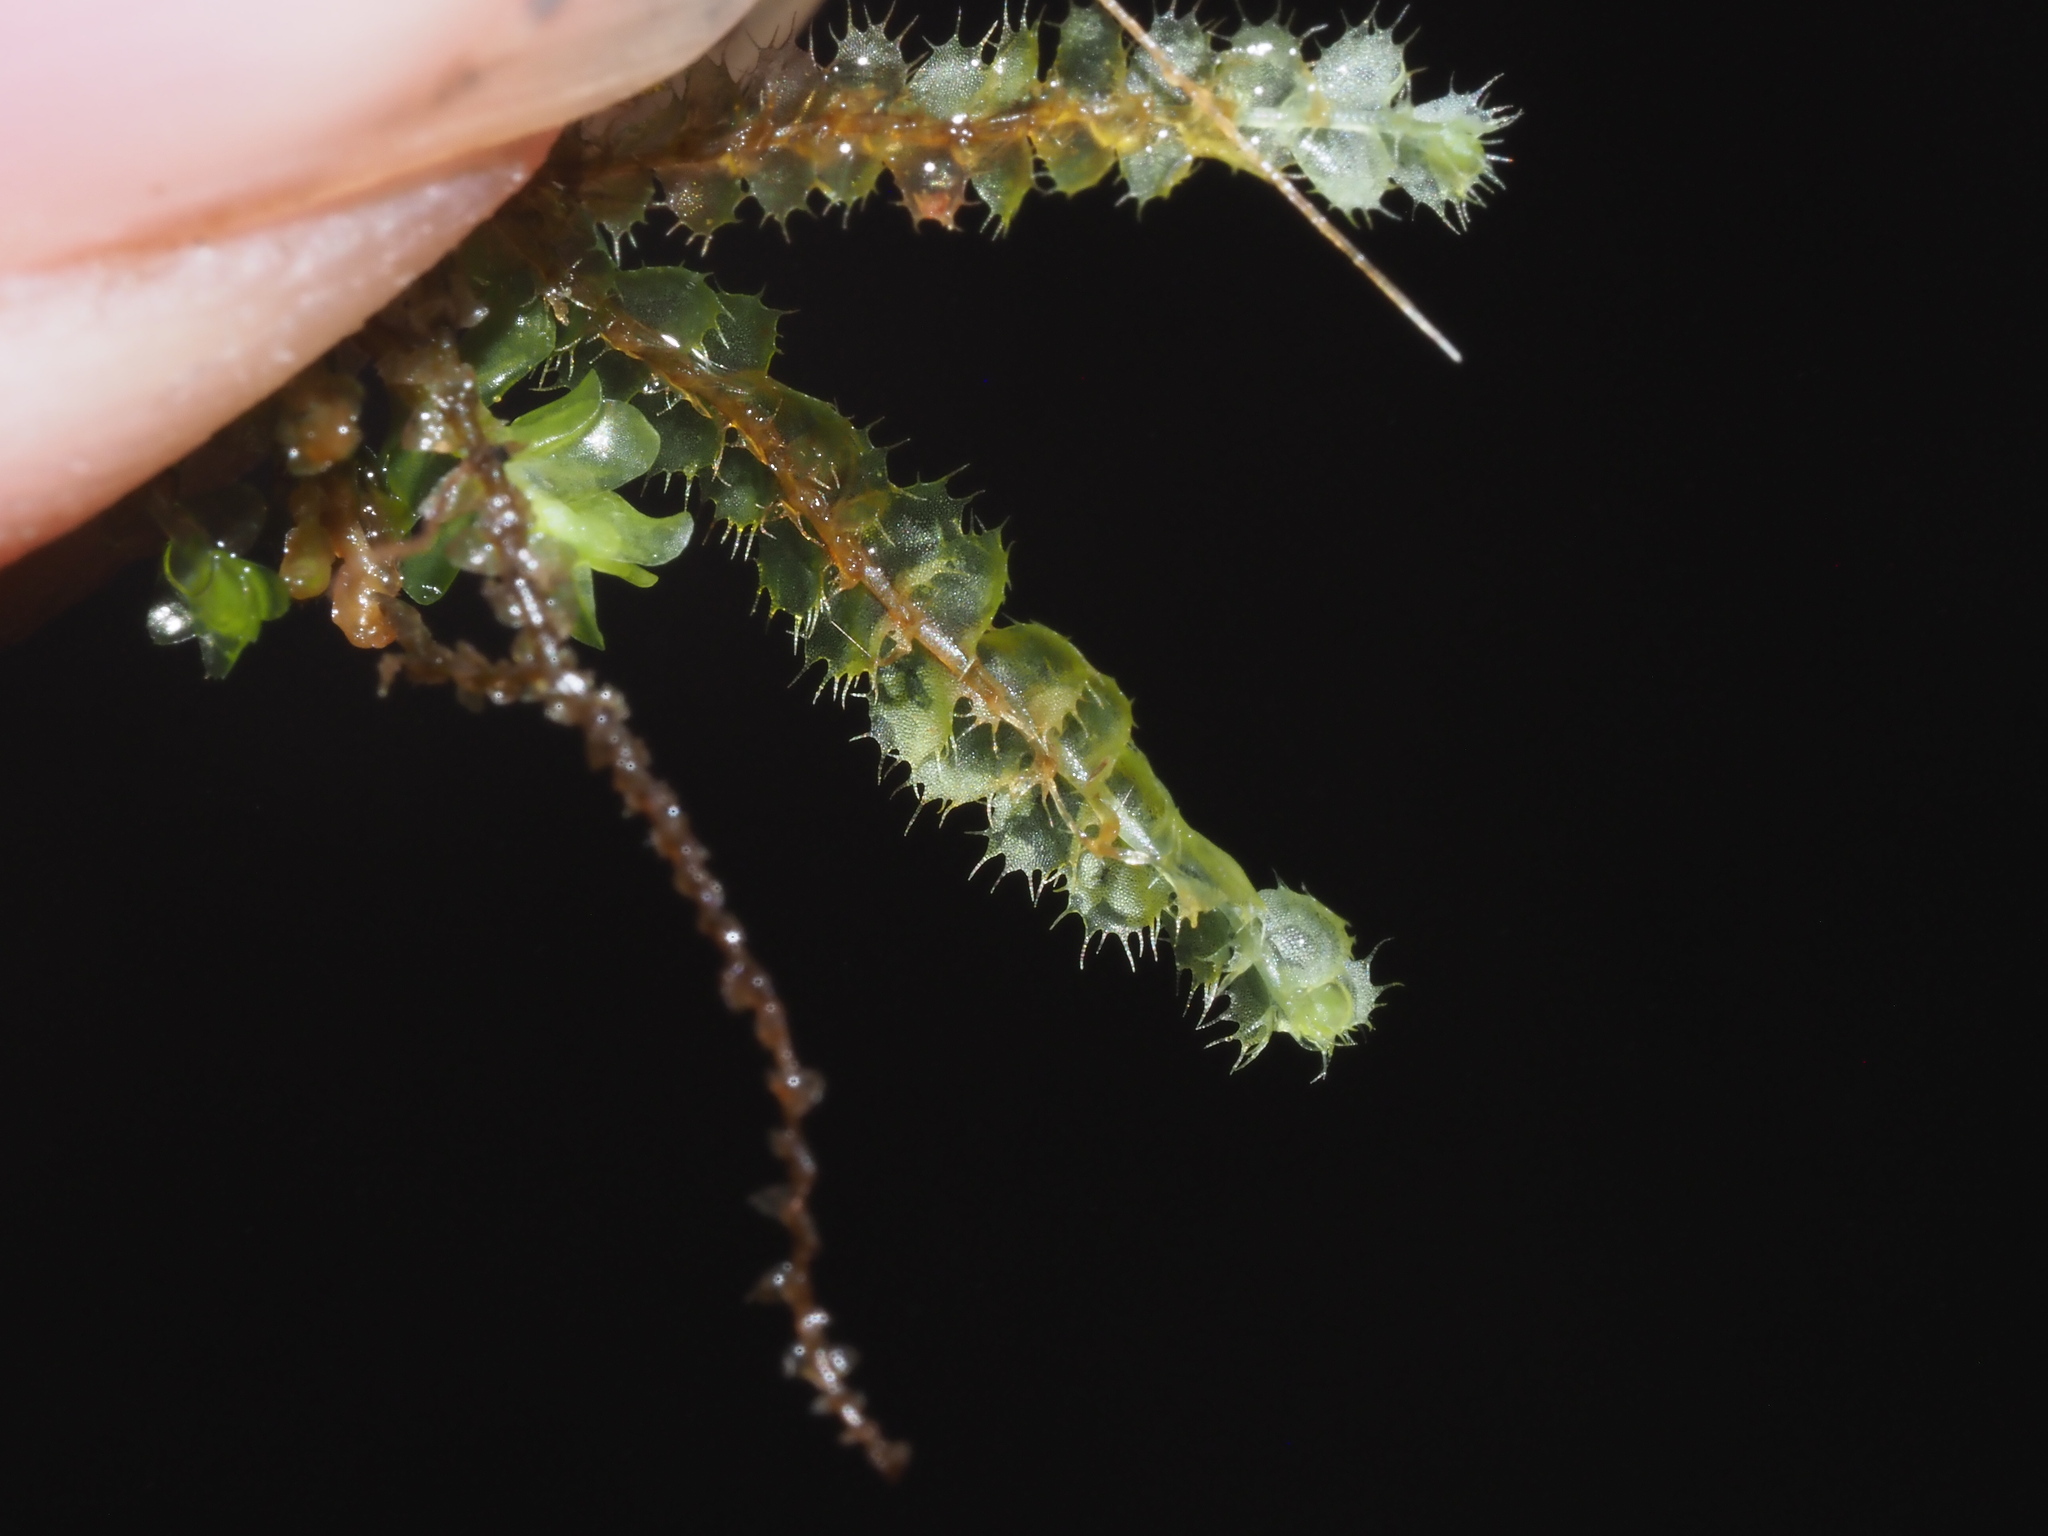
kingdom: Plantae
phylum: Marchantiophyta
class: Jungermanniopsida
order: Jungermanniales
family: Lophocoleaceae
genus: Leptoscyphus
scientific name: Leptoscyphus
